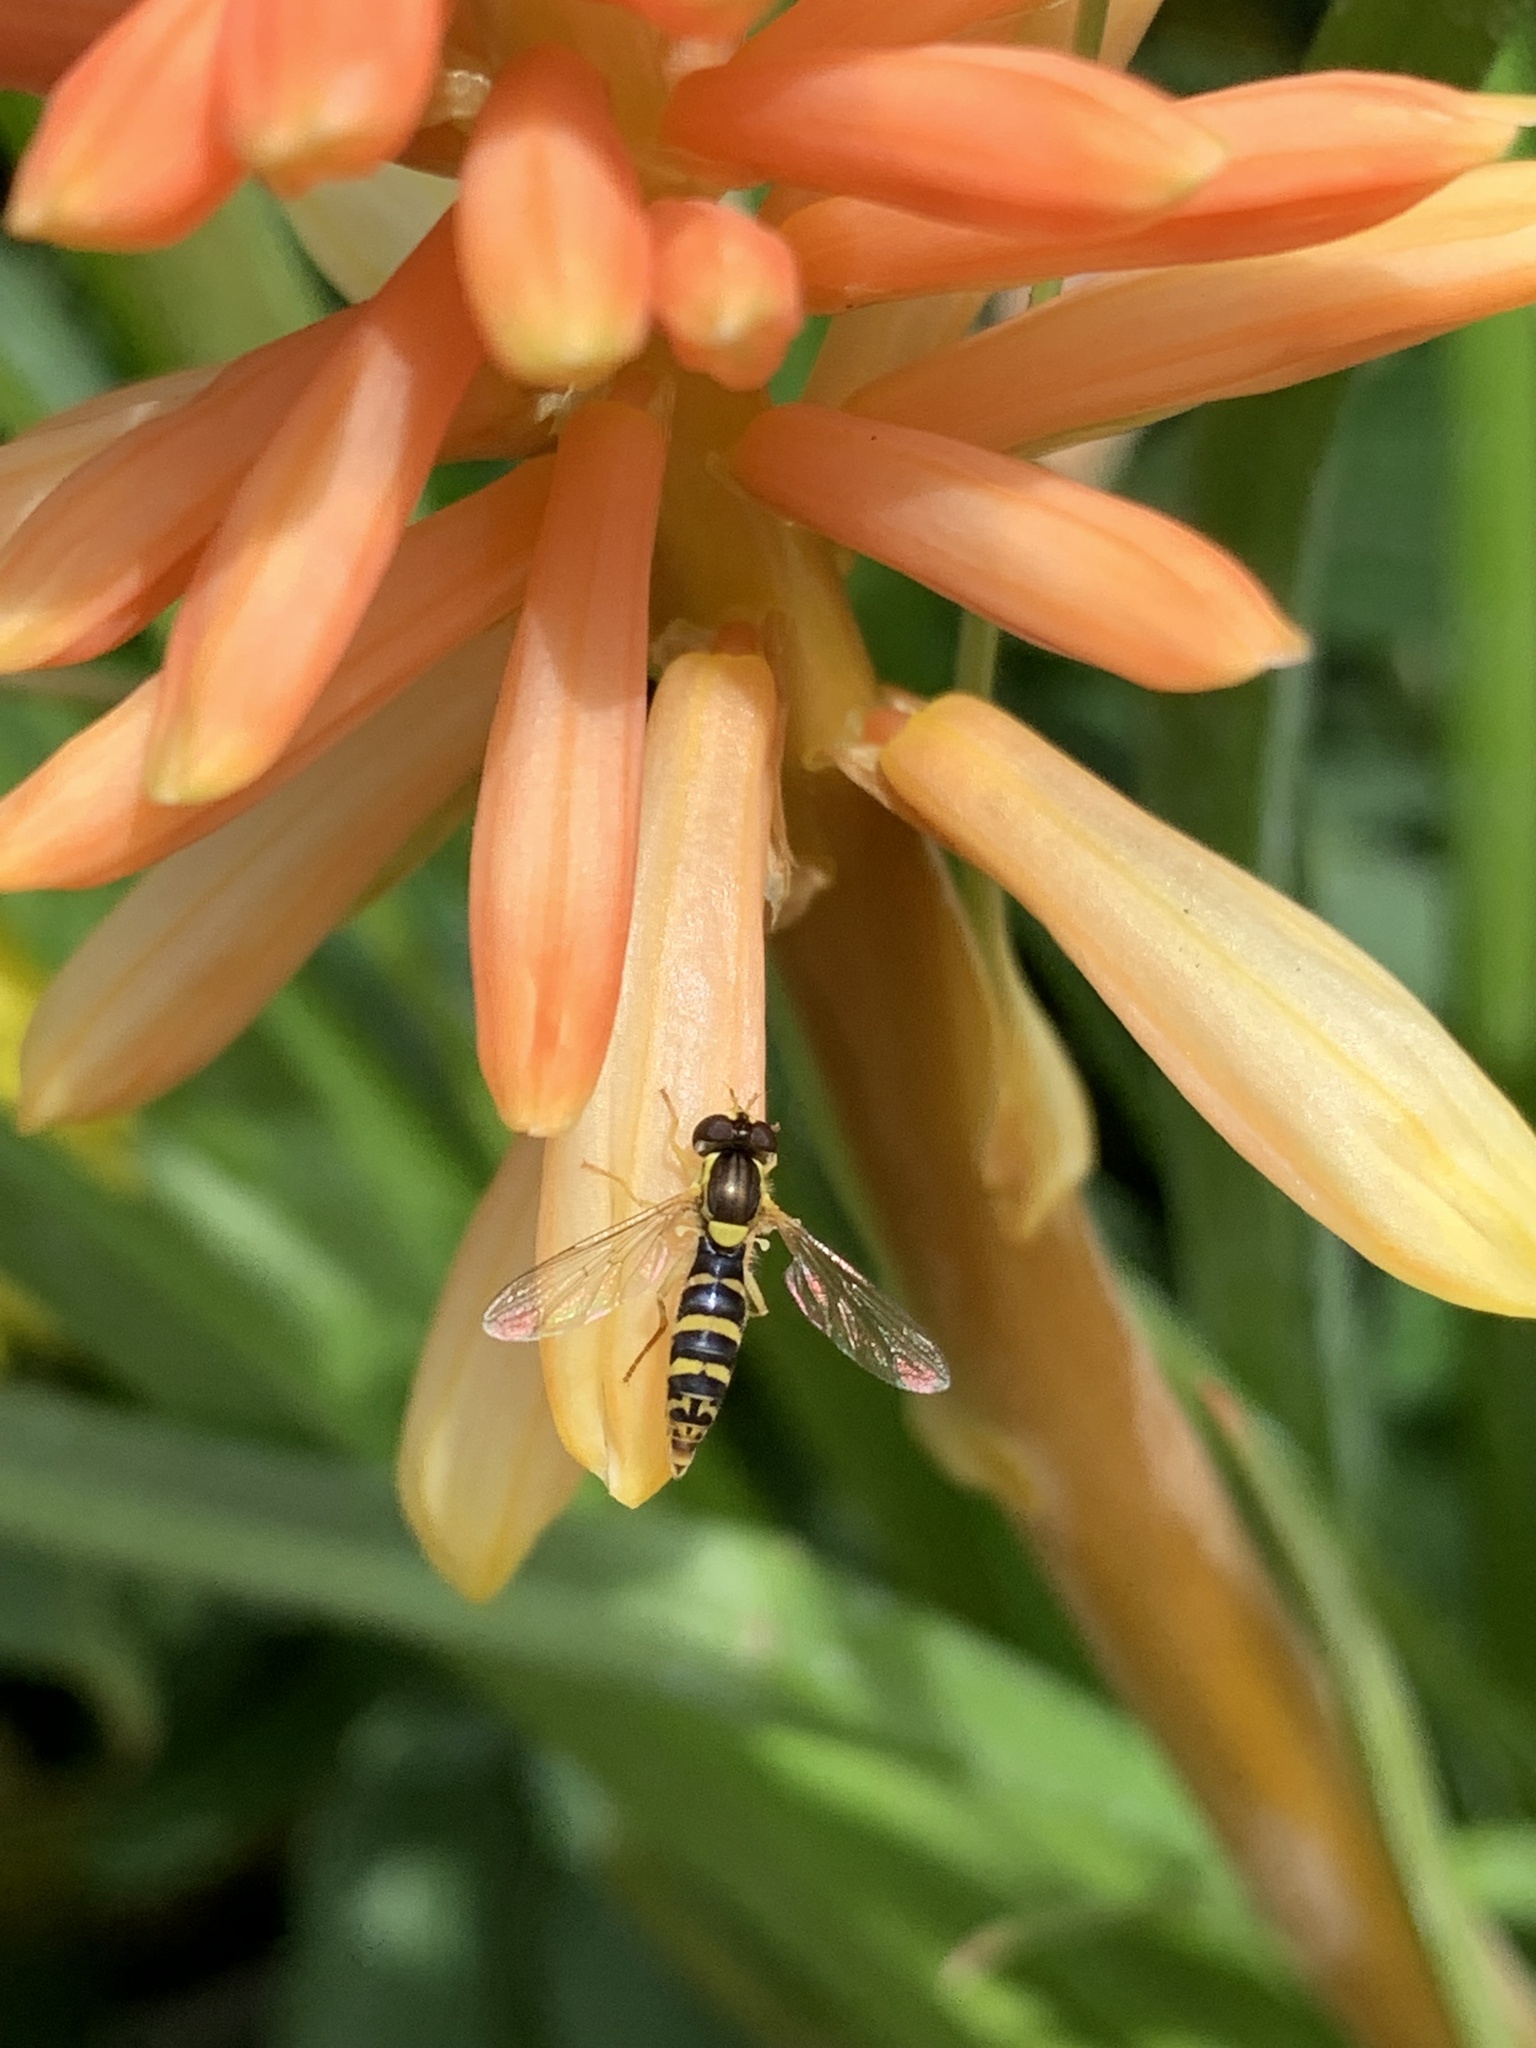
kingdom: Animalia
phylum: Arthropoda
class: Insecta
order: Diptera
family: Syrphidae
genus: Sphaerophoria
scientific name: Sphaerophoria
